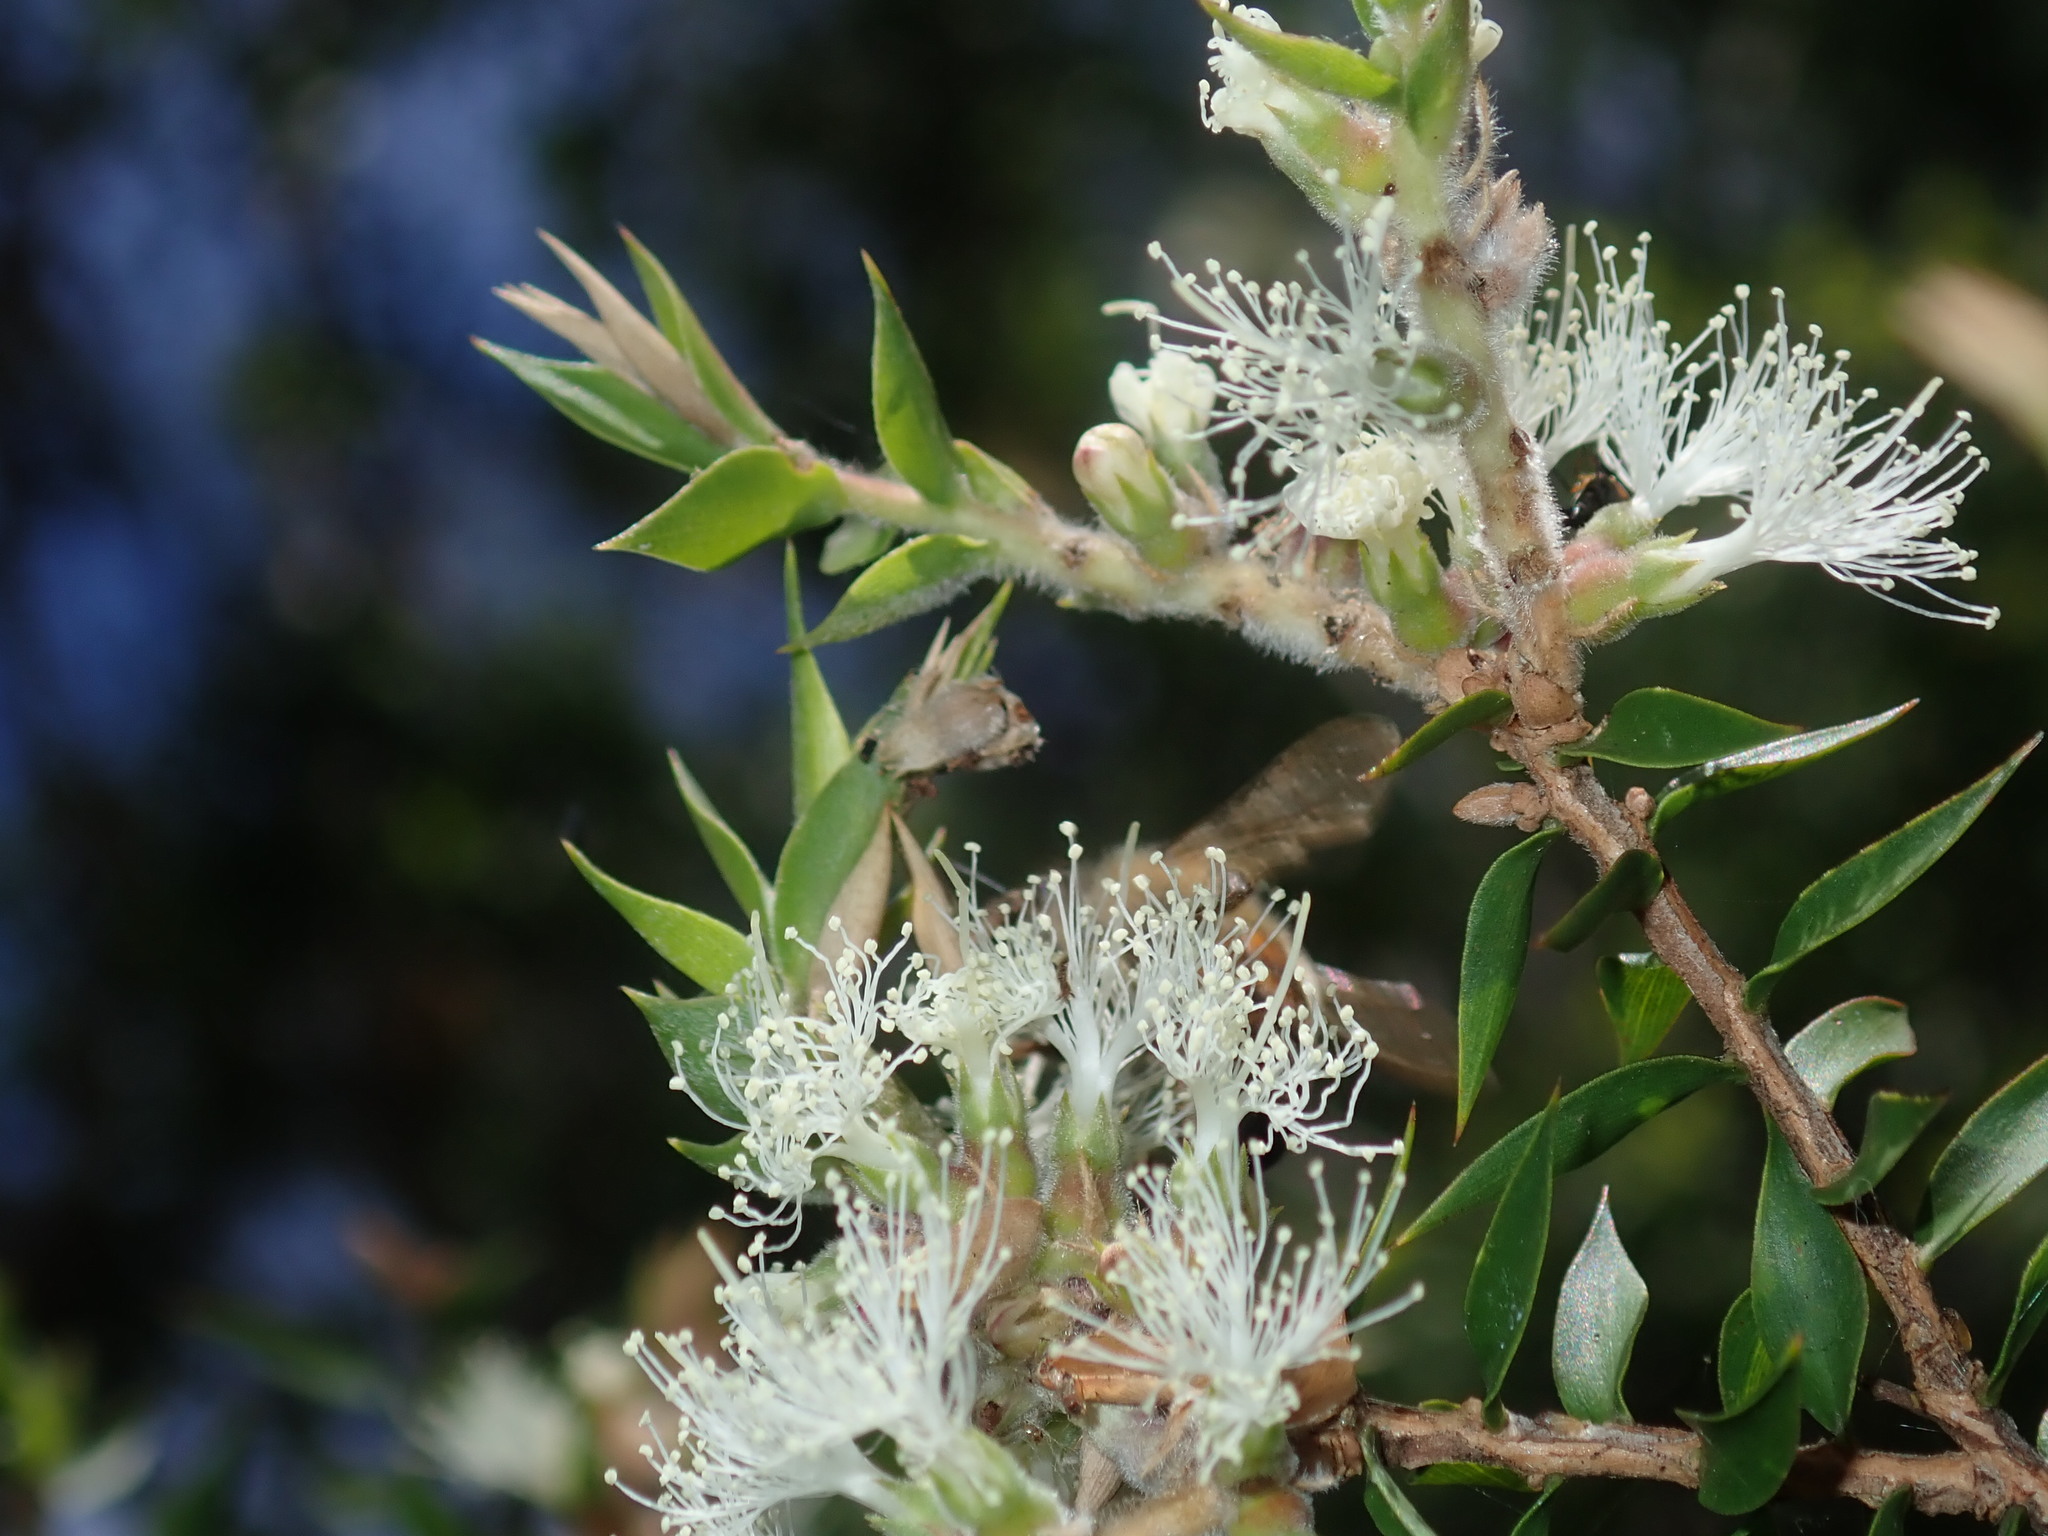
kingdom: Animalia
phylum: Arthropoda
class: Insecta
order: Hymenoptera
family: Apidae
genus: Apis
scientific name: Apis mellifera
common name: Honey bee
